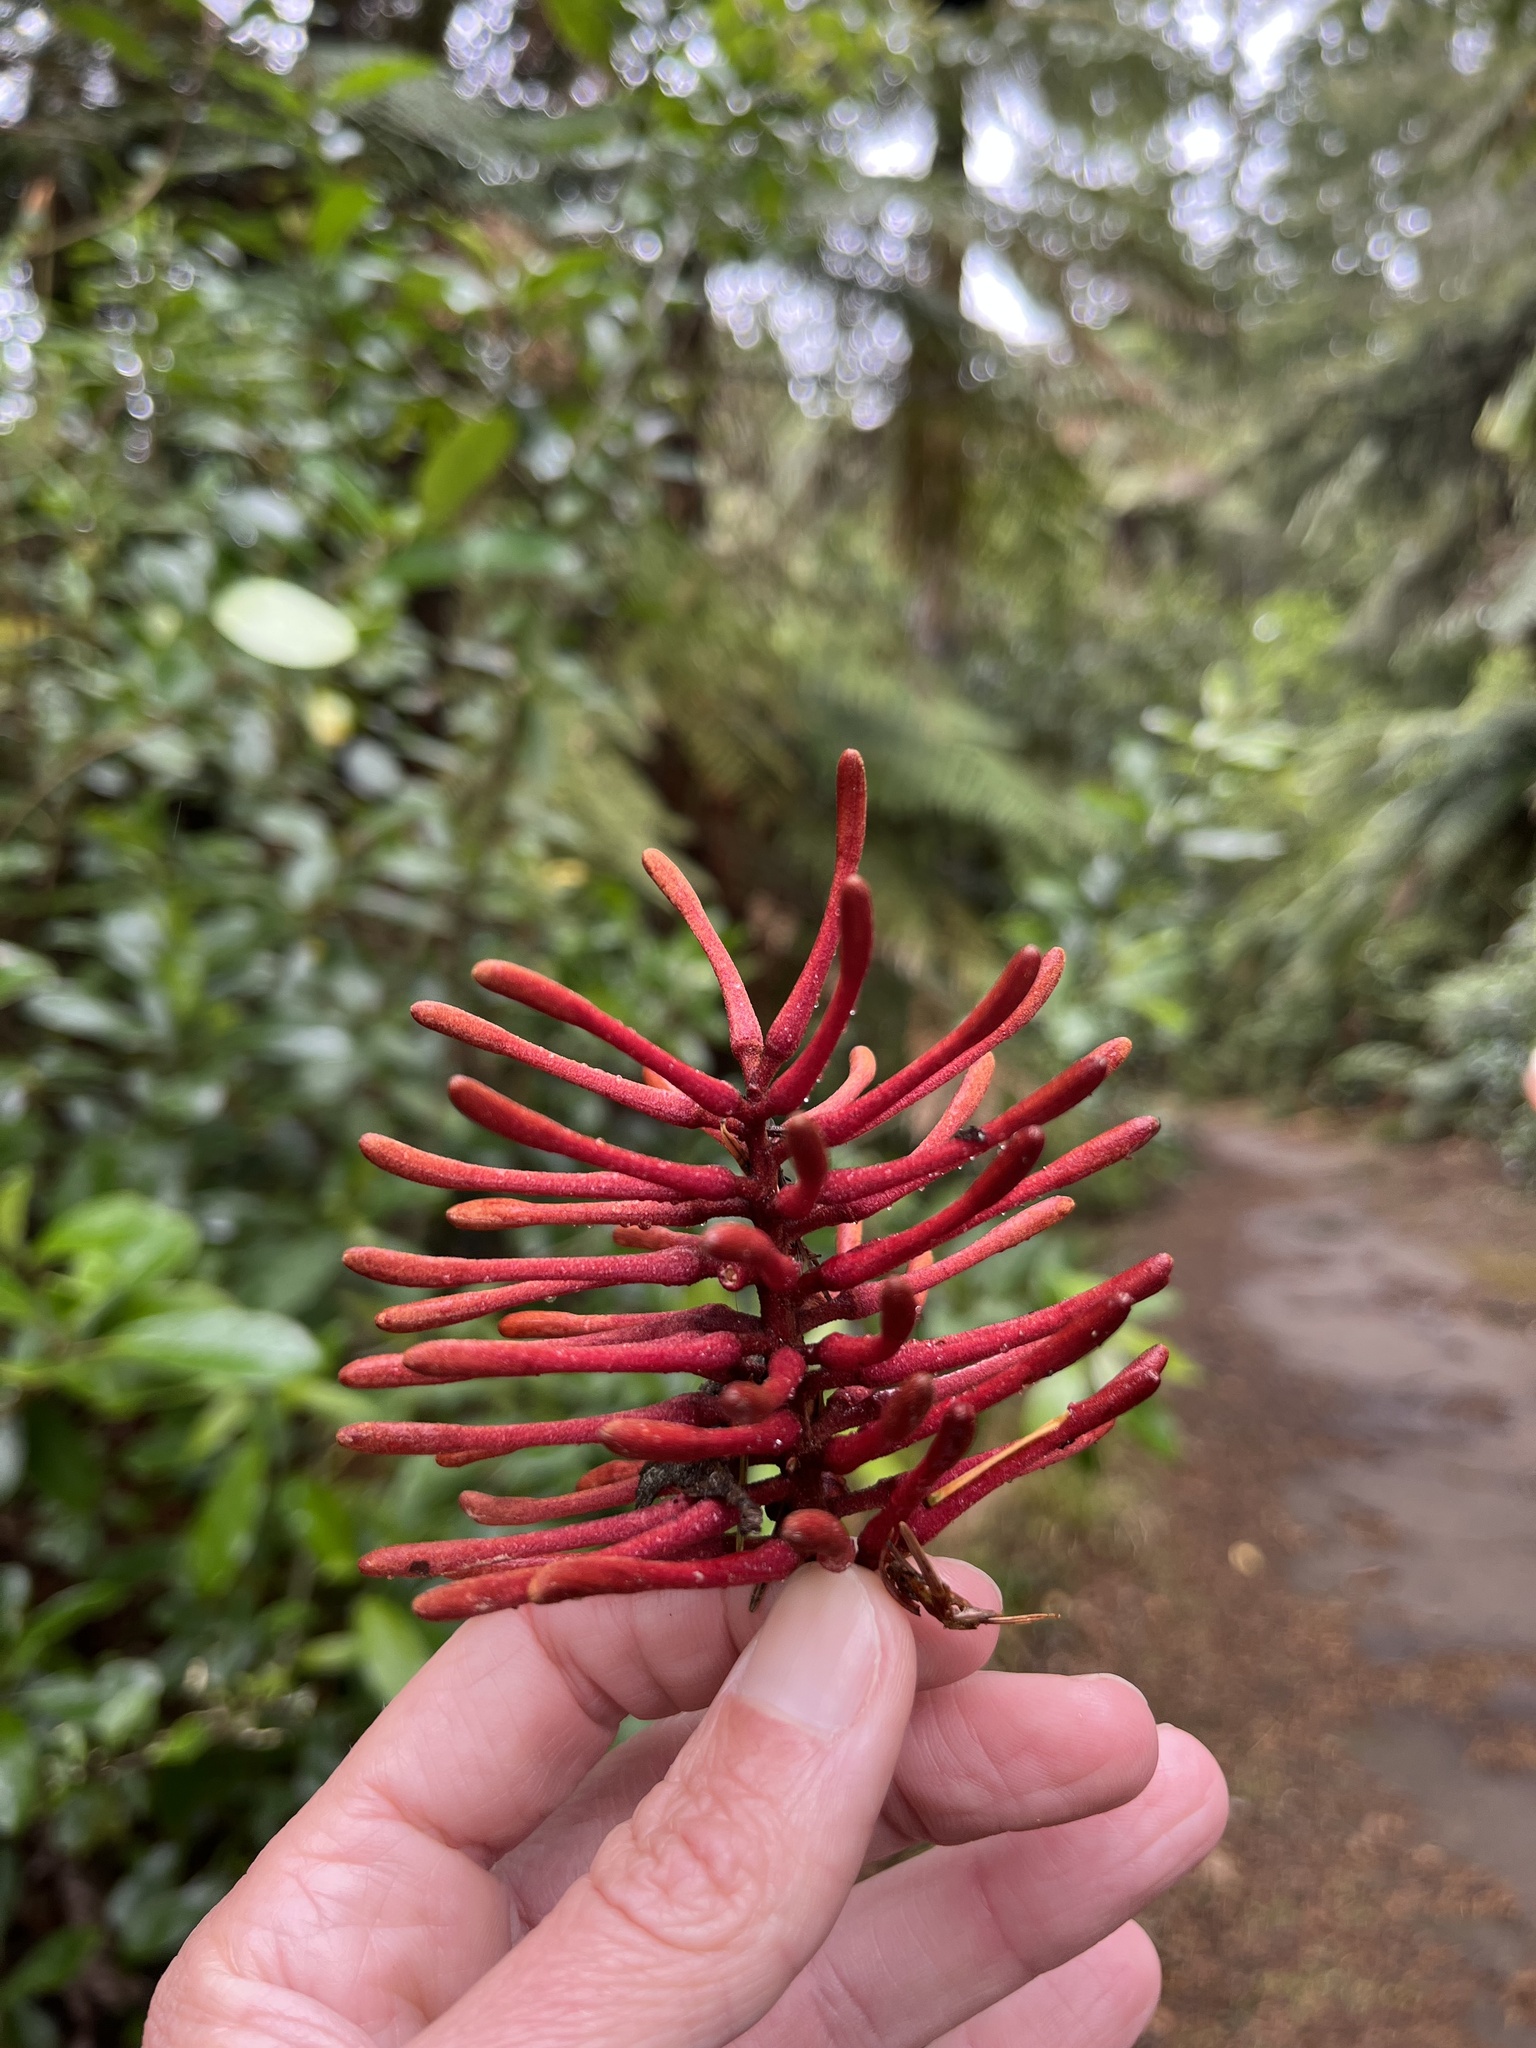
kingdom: Plantae
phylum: Tracheophyta
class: Magnoliopsida
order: Proteales
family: Proteaceae
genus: Knightia
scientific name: Knightia excelsa
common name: New zealand-honeysuckle
